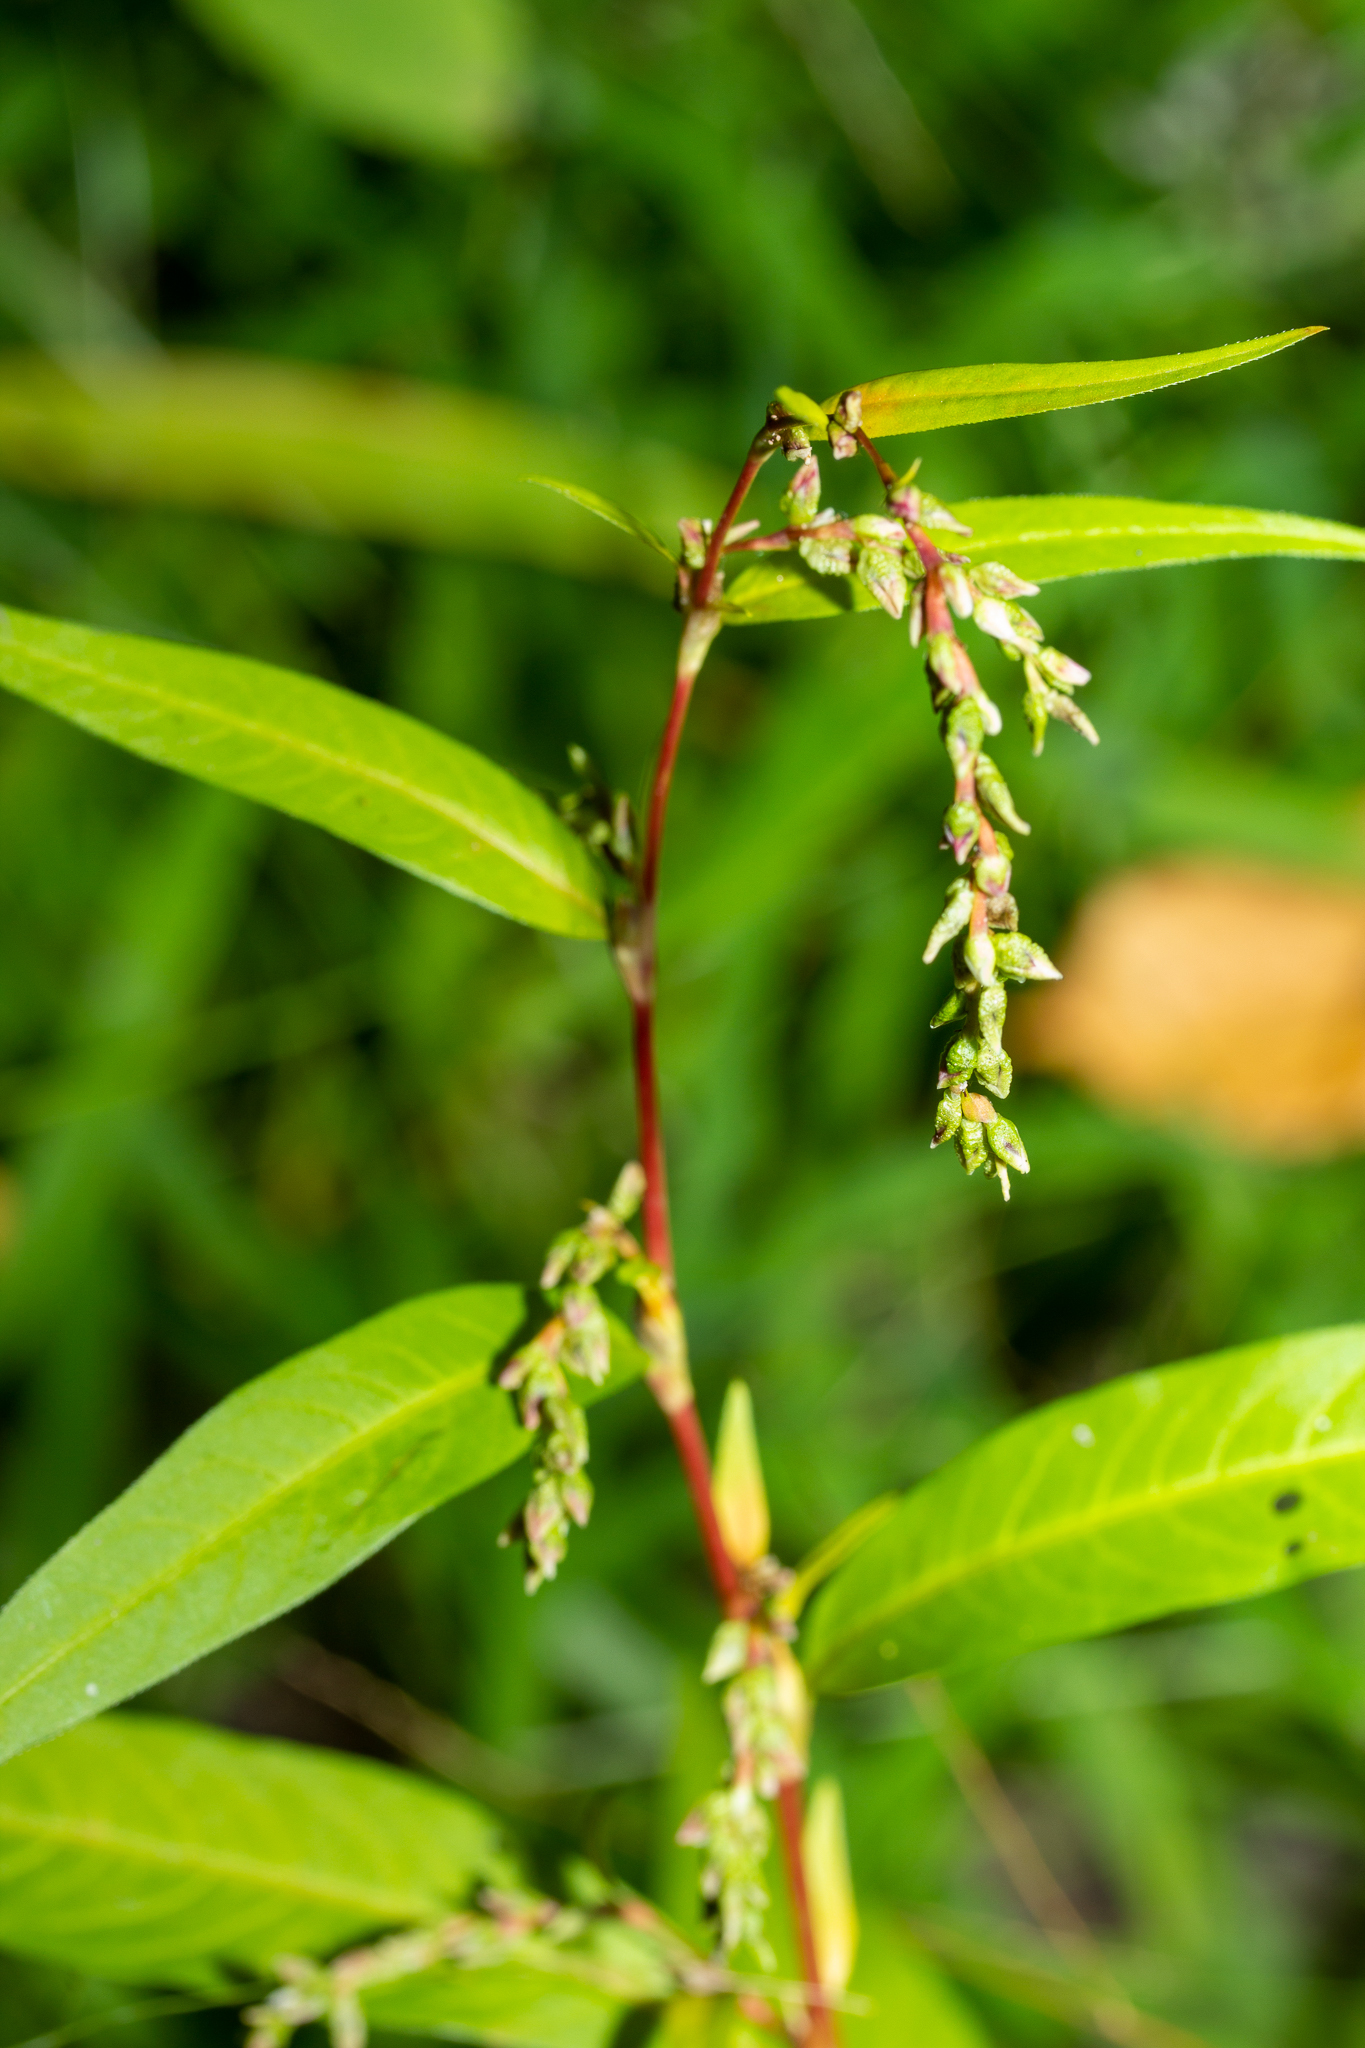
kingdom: Plantae
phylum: Tracheophyta
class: Magnoliopsida
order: Caryophyllales
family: Polygonaceae
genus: Persicaria
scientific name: Persicaria hydropiper
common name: Water-pepper
